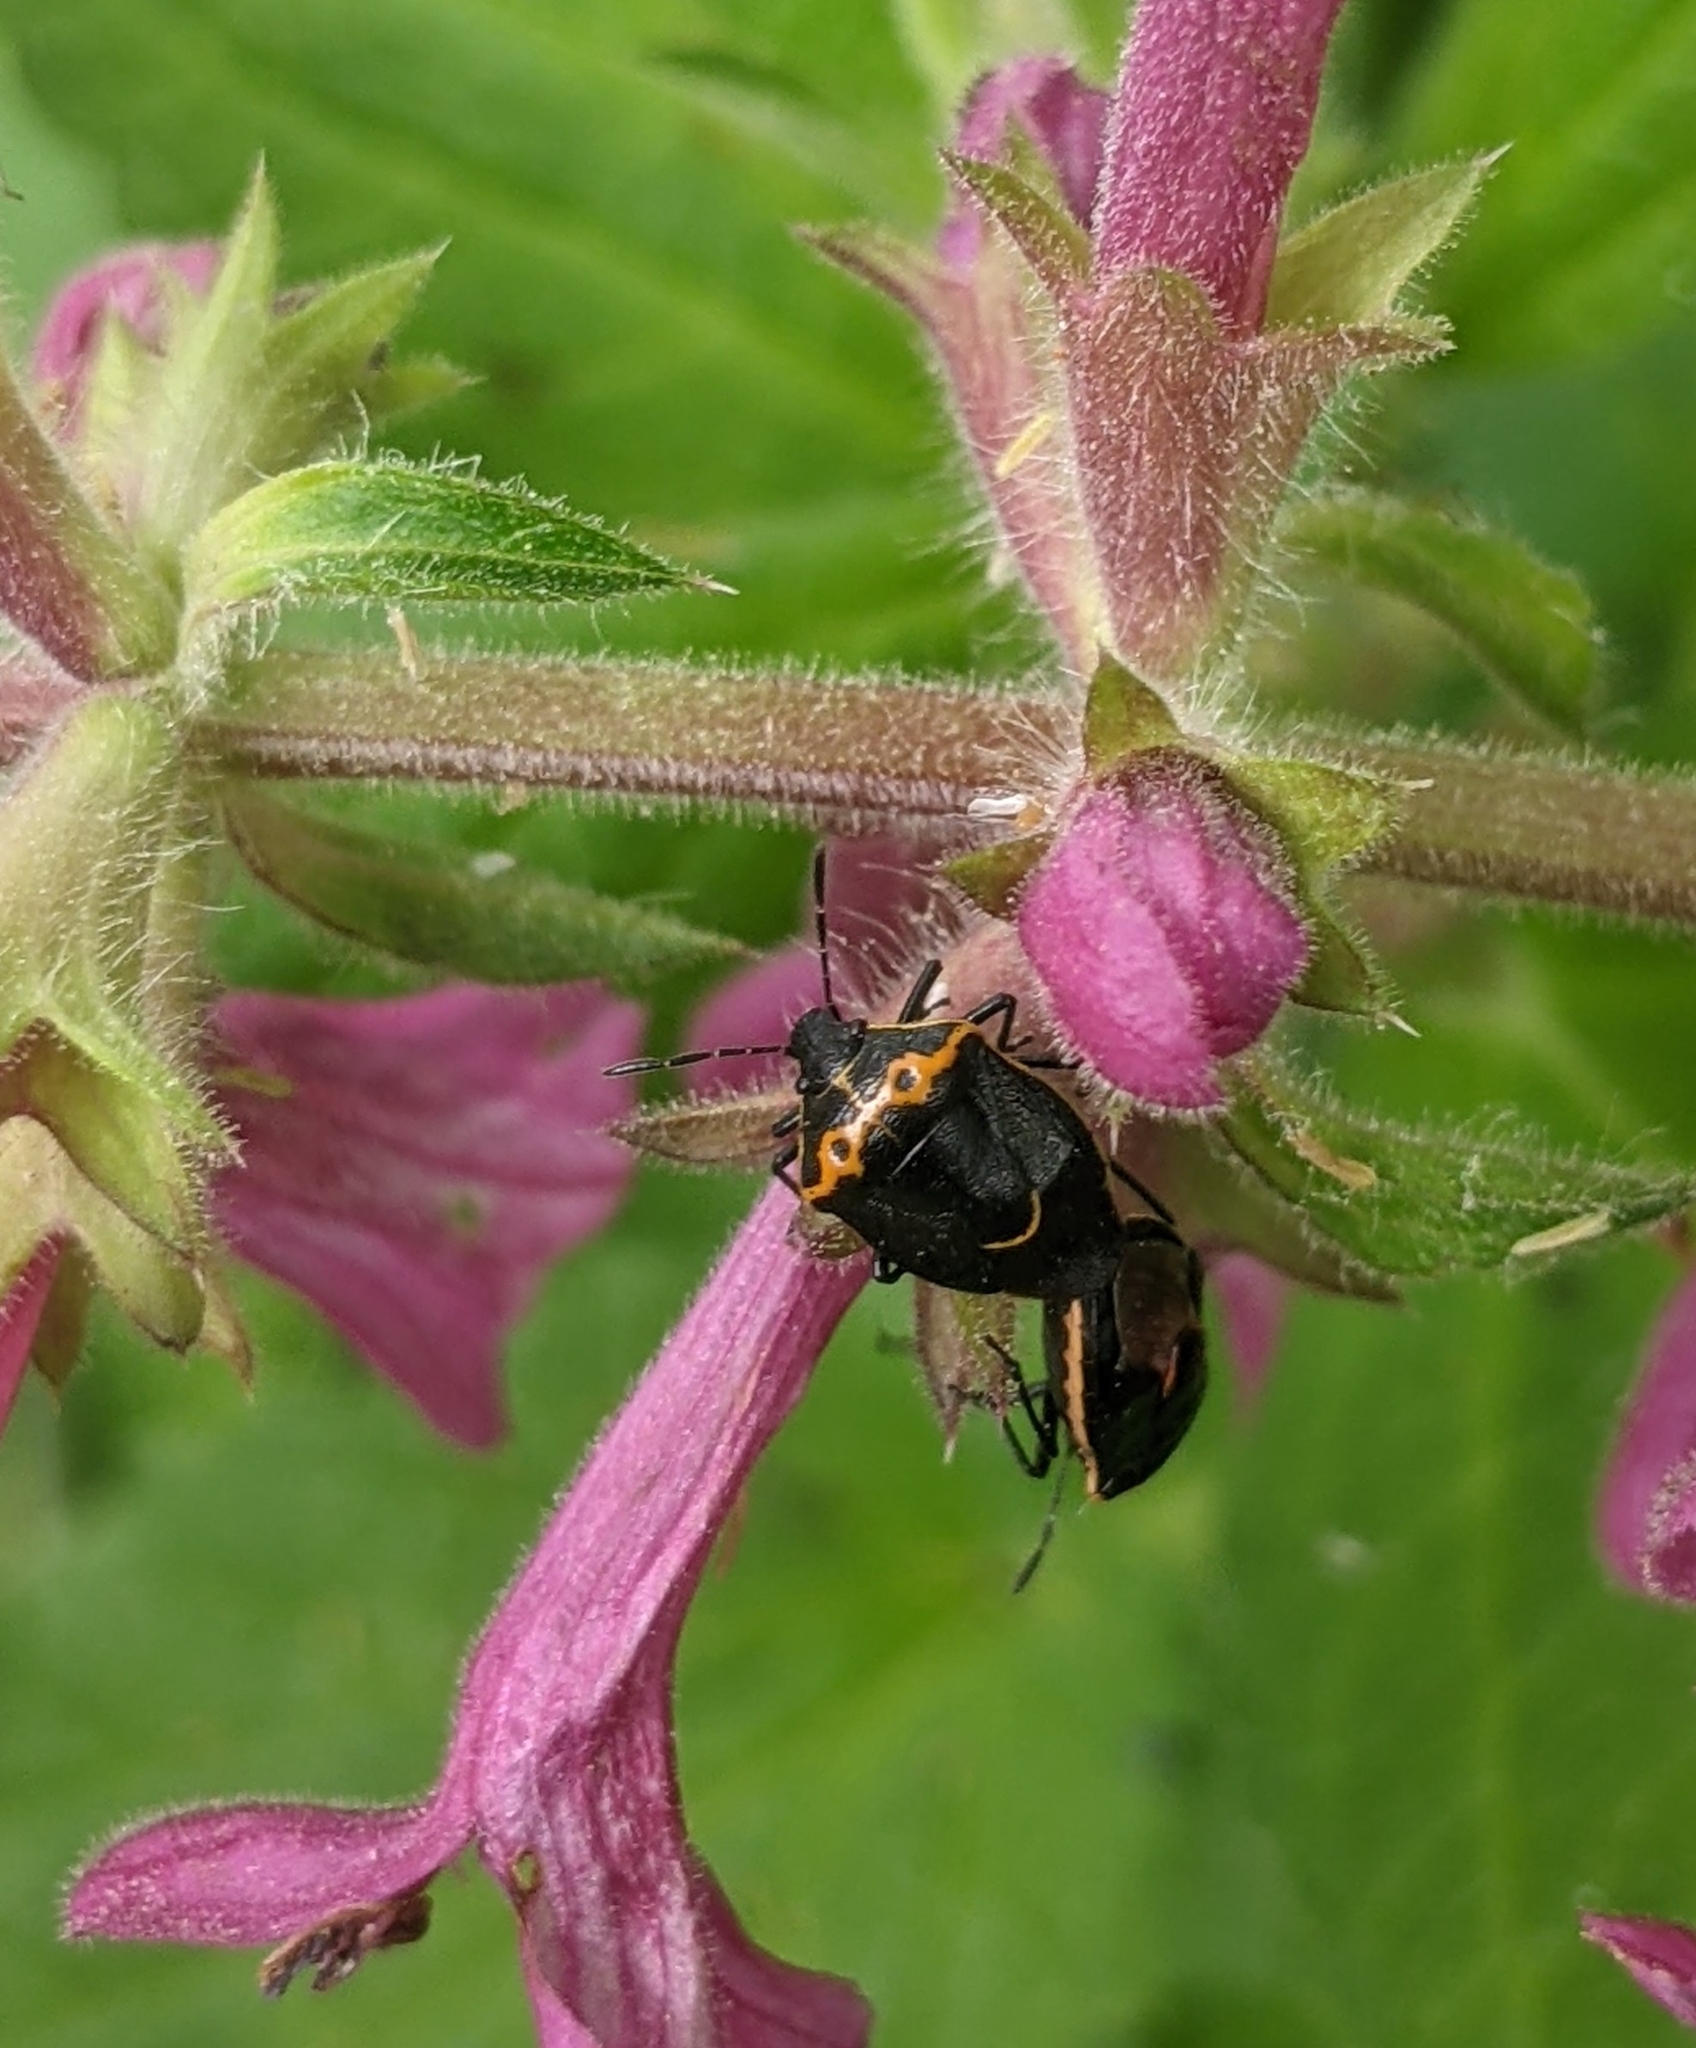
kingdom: Animalia
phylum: Arthropoda
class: Insecta
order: Hemiptera
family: Pentatomidae
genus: Cosmopepla
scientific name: Cosmopepla conspicillaris
